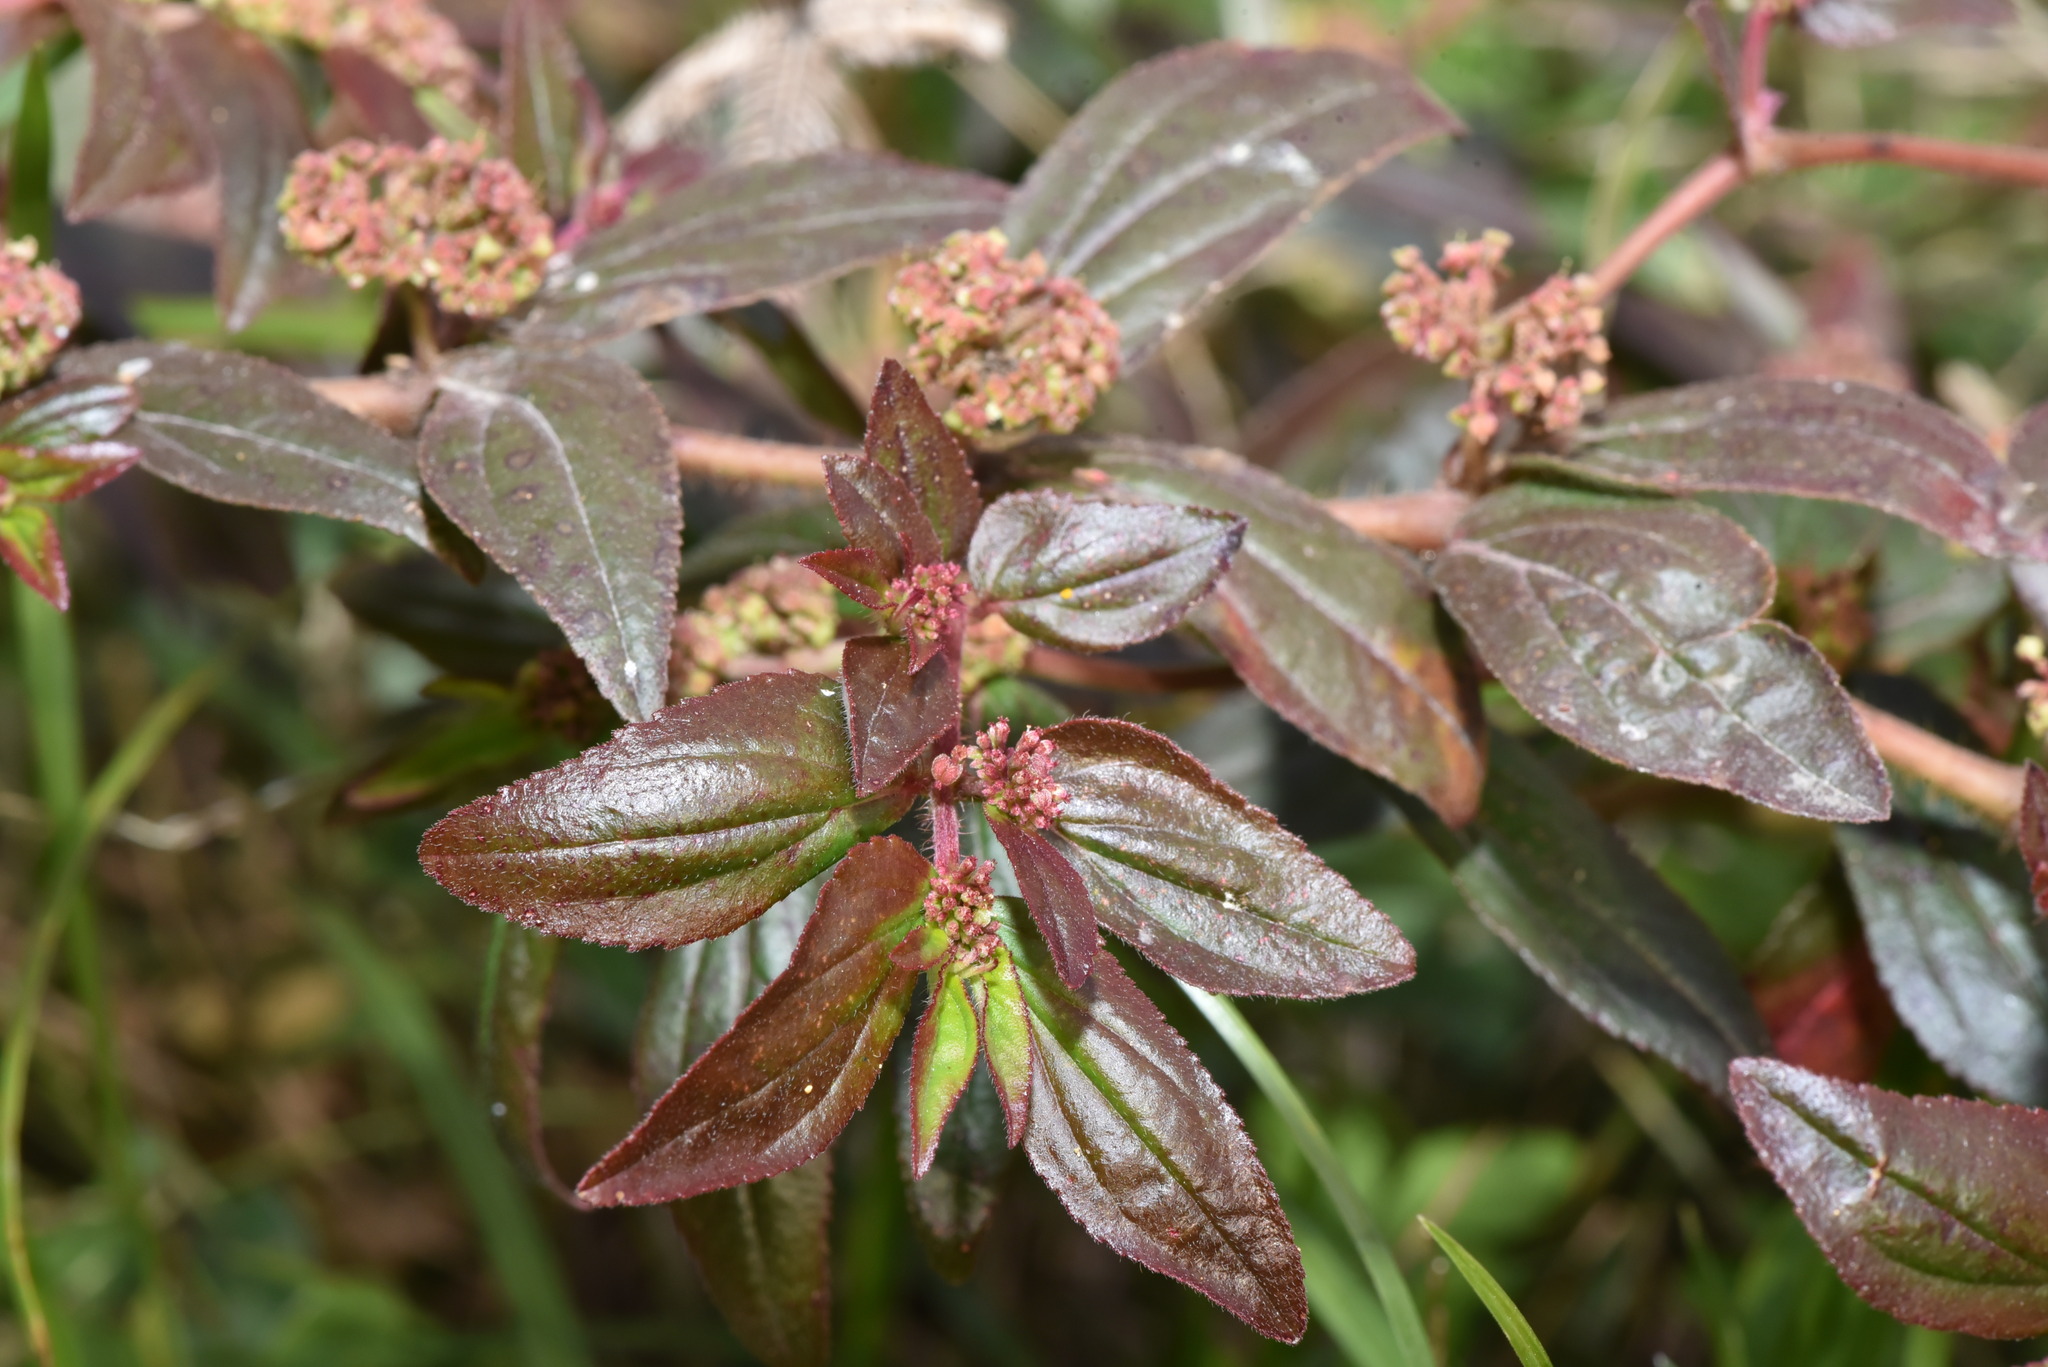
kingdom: Plantae
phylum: Tracheophyta
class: Magnoliopsida
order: Malpighiales
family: Euphorbiaceae
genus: Euphorbia
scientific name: Euphorbia hirta
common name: Pillpod sandmat
